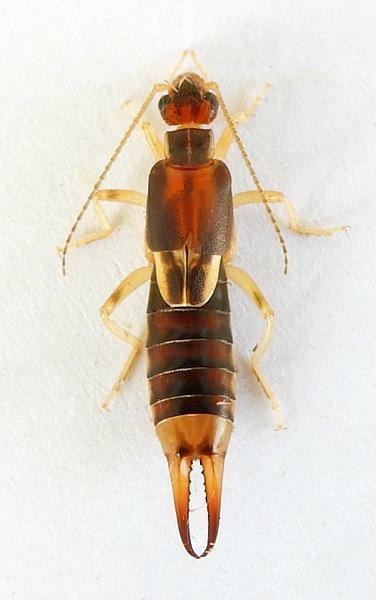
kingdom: Animalia
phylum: Arthropoda
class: Insecta
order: Dermaptera
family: Labiduridae
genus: Labidura
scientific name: Labidura riparia
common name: Striped earwig
